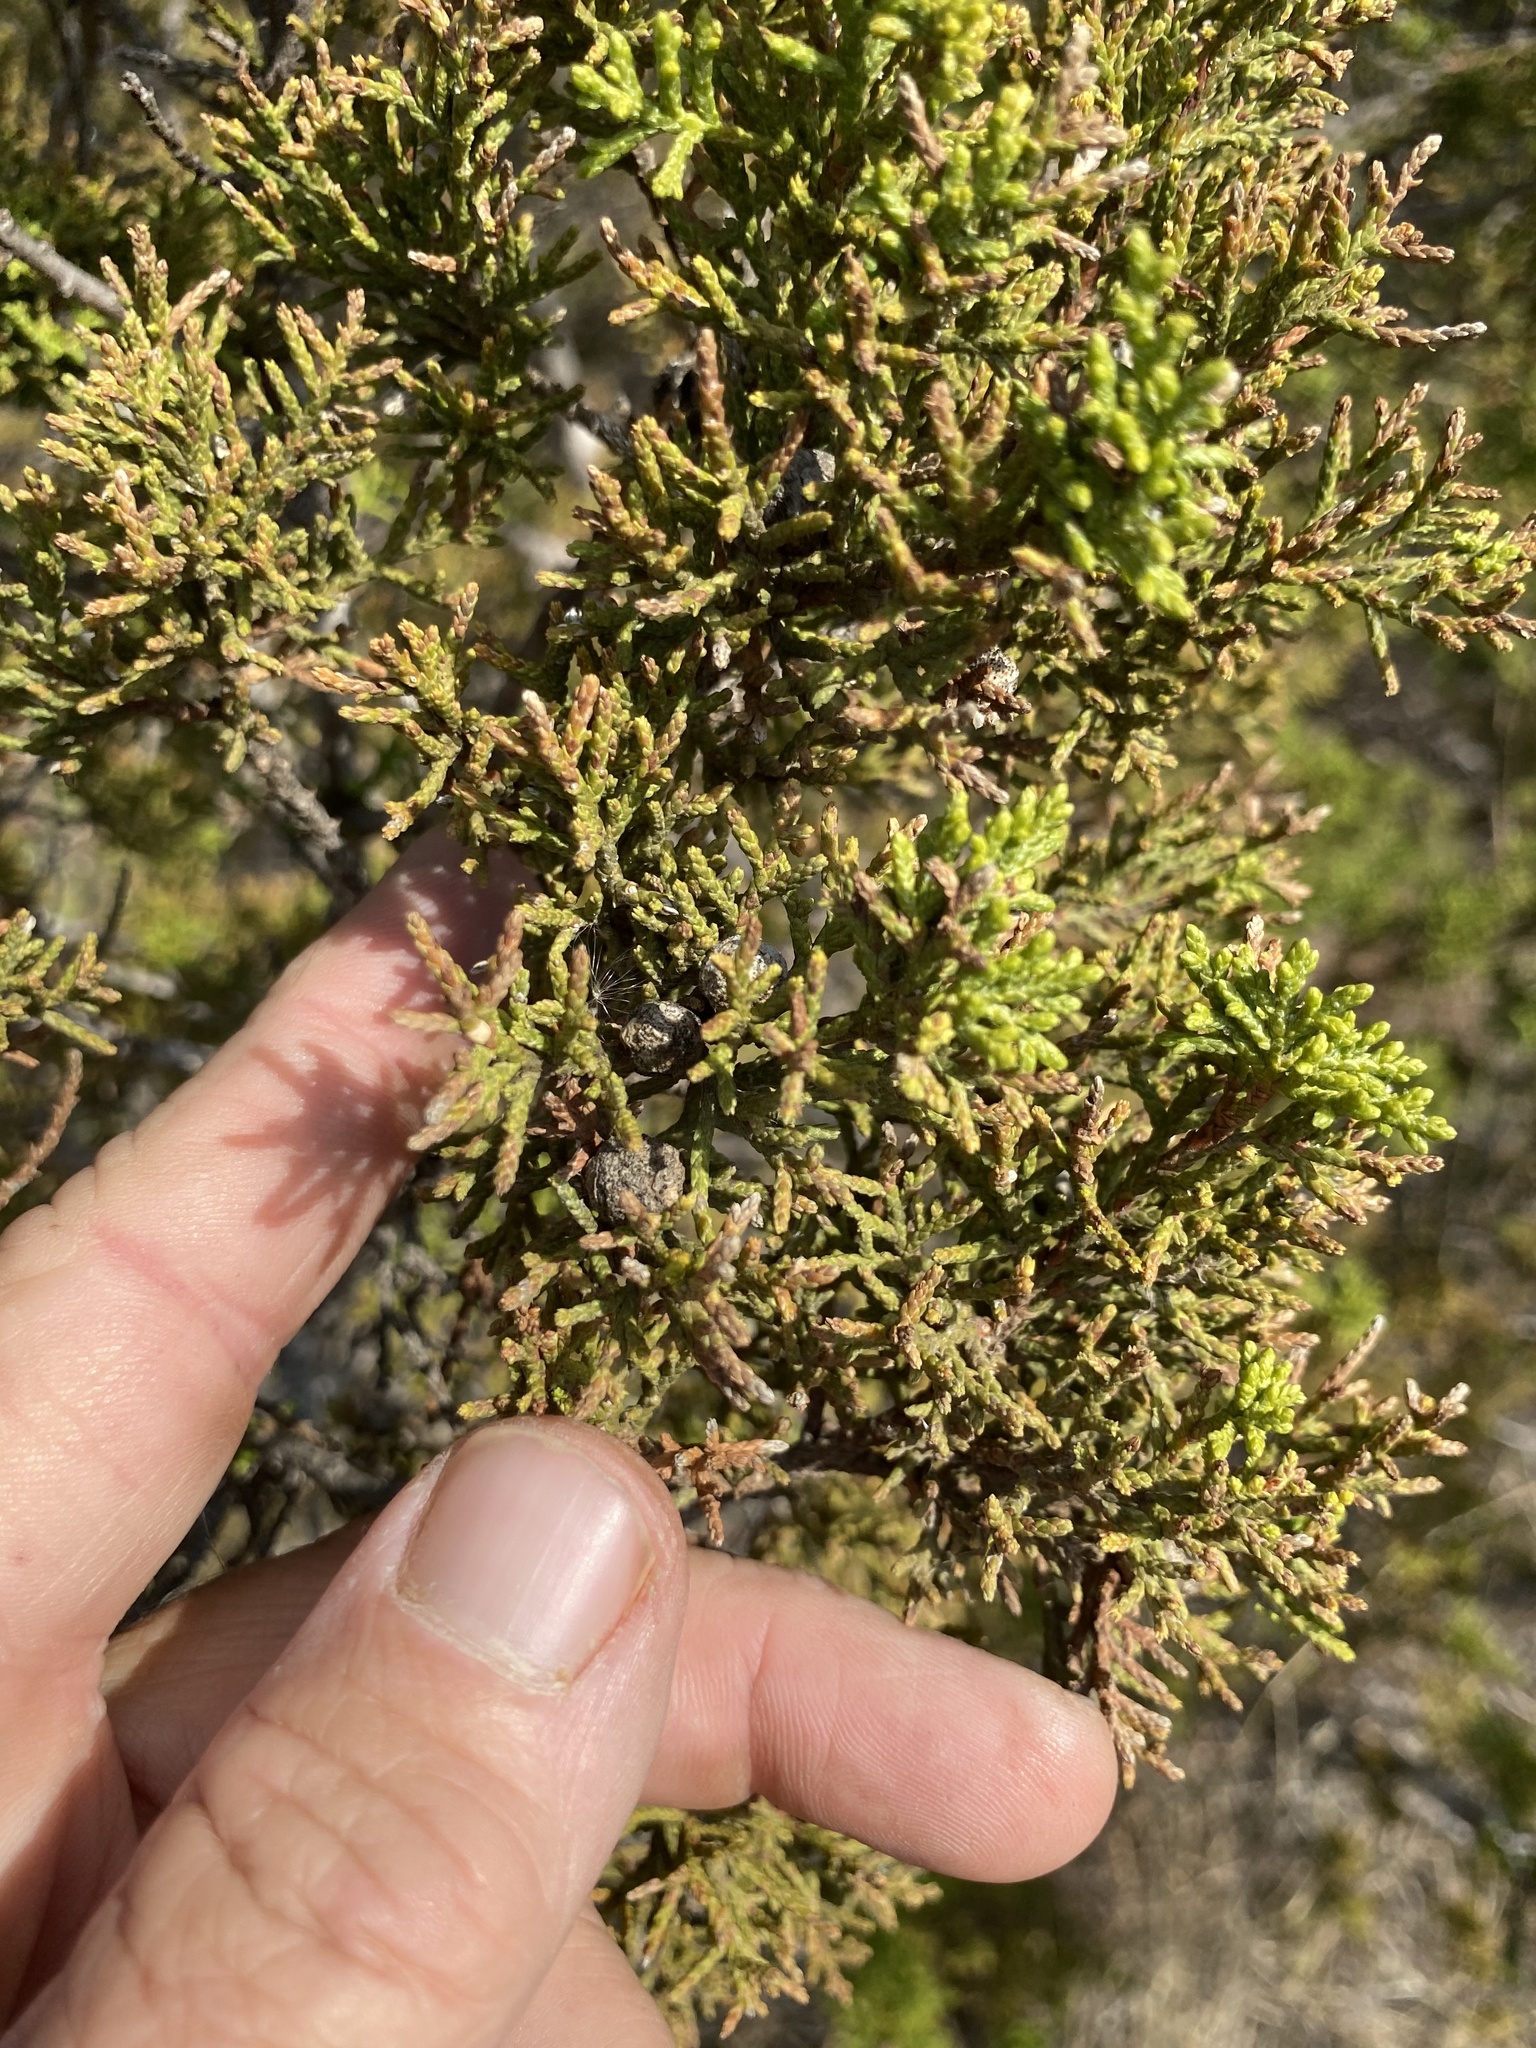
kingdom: Plantae
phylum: Tracheophyta
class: Pinopsida
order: Pinales
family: Cupressaceae
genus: Juniperus
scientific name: Juniperus ashei
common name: Mexican juniper
